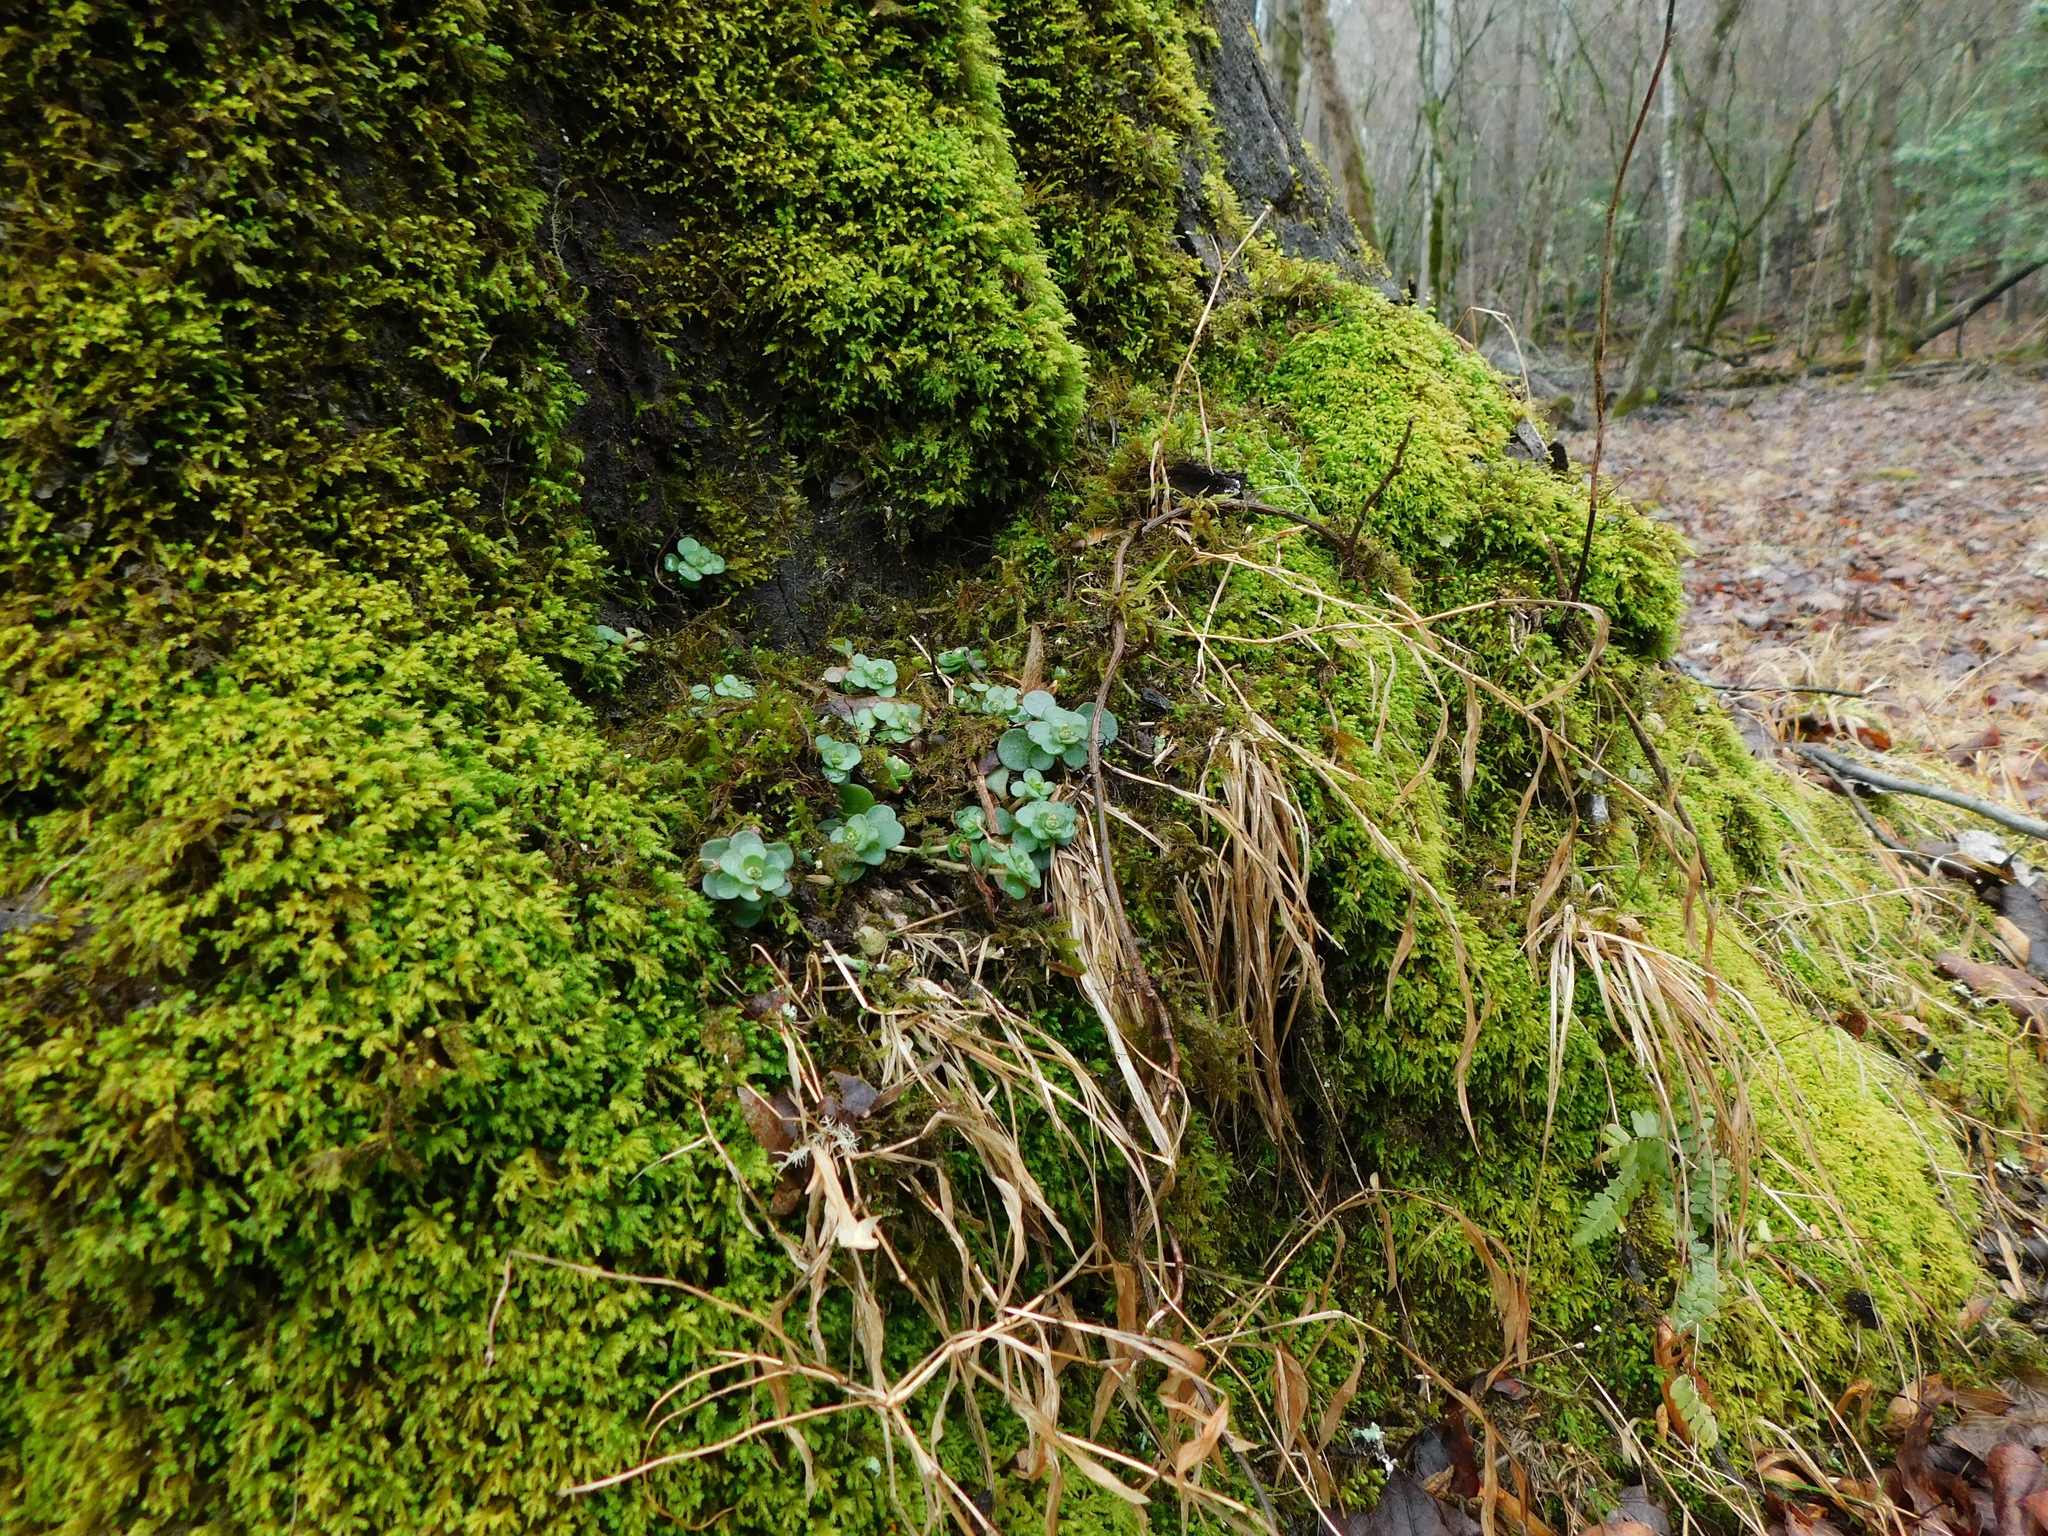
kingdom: Plantae
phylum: Tracheophyta
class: Magnoliopsida
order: Saxifragales
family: Crassulaceae
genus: Sedum
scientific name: Sedum ternatum
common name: Wild stonecrop
